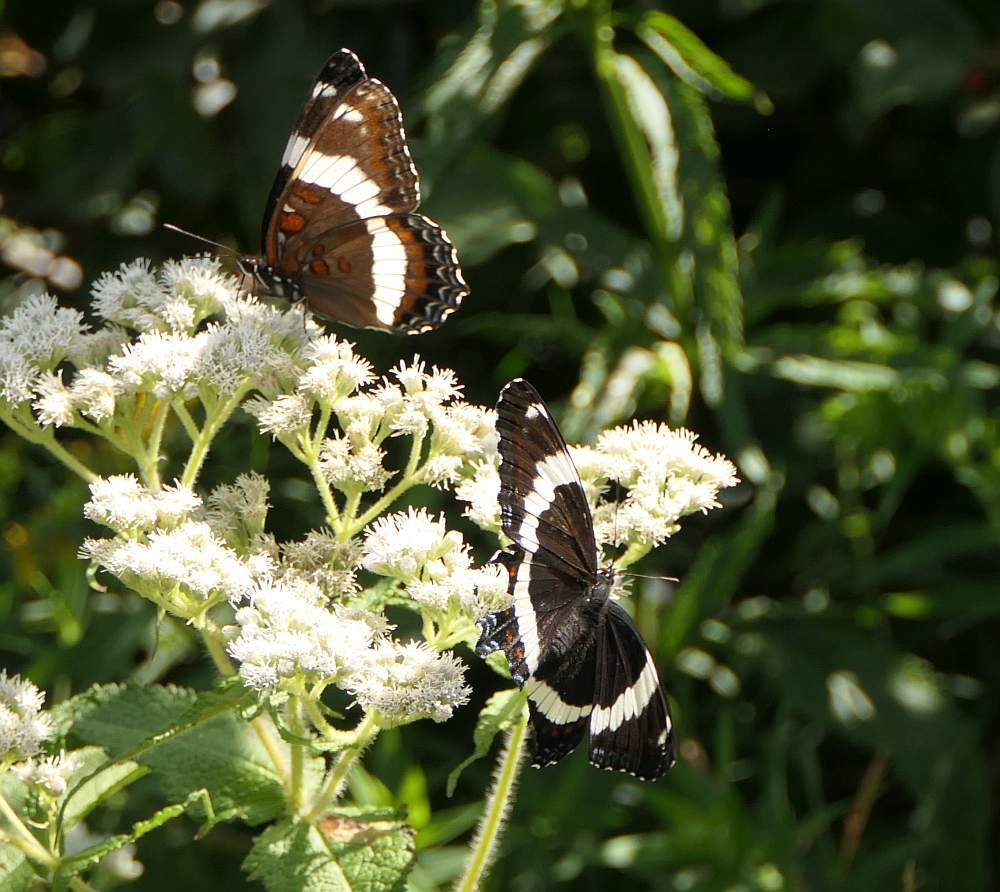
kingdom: Animalia
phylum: Arthropoda
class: Insecta
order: Lepidoptera
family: Nymphalidae
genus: Limenitis
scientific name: Limenitis arthemis
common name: Red-spotted admiral
